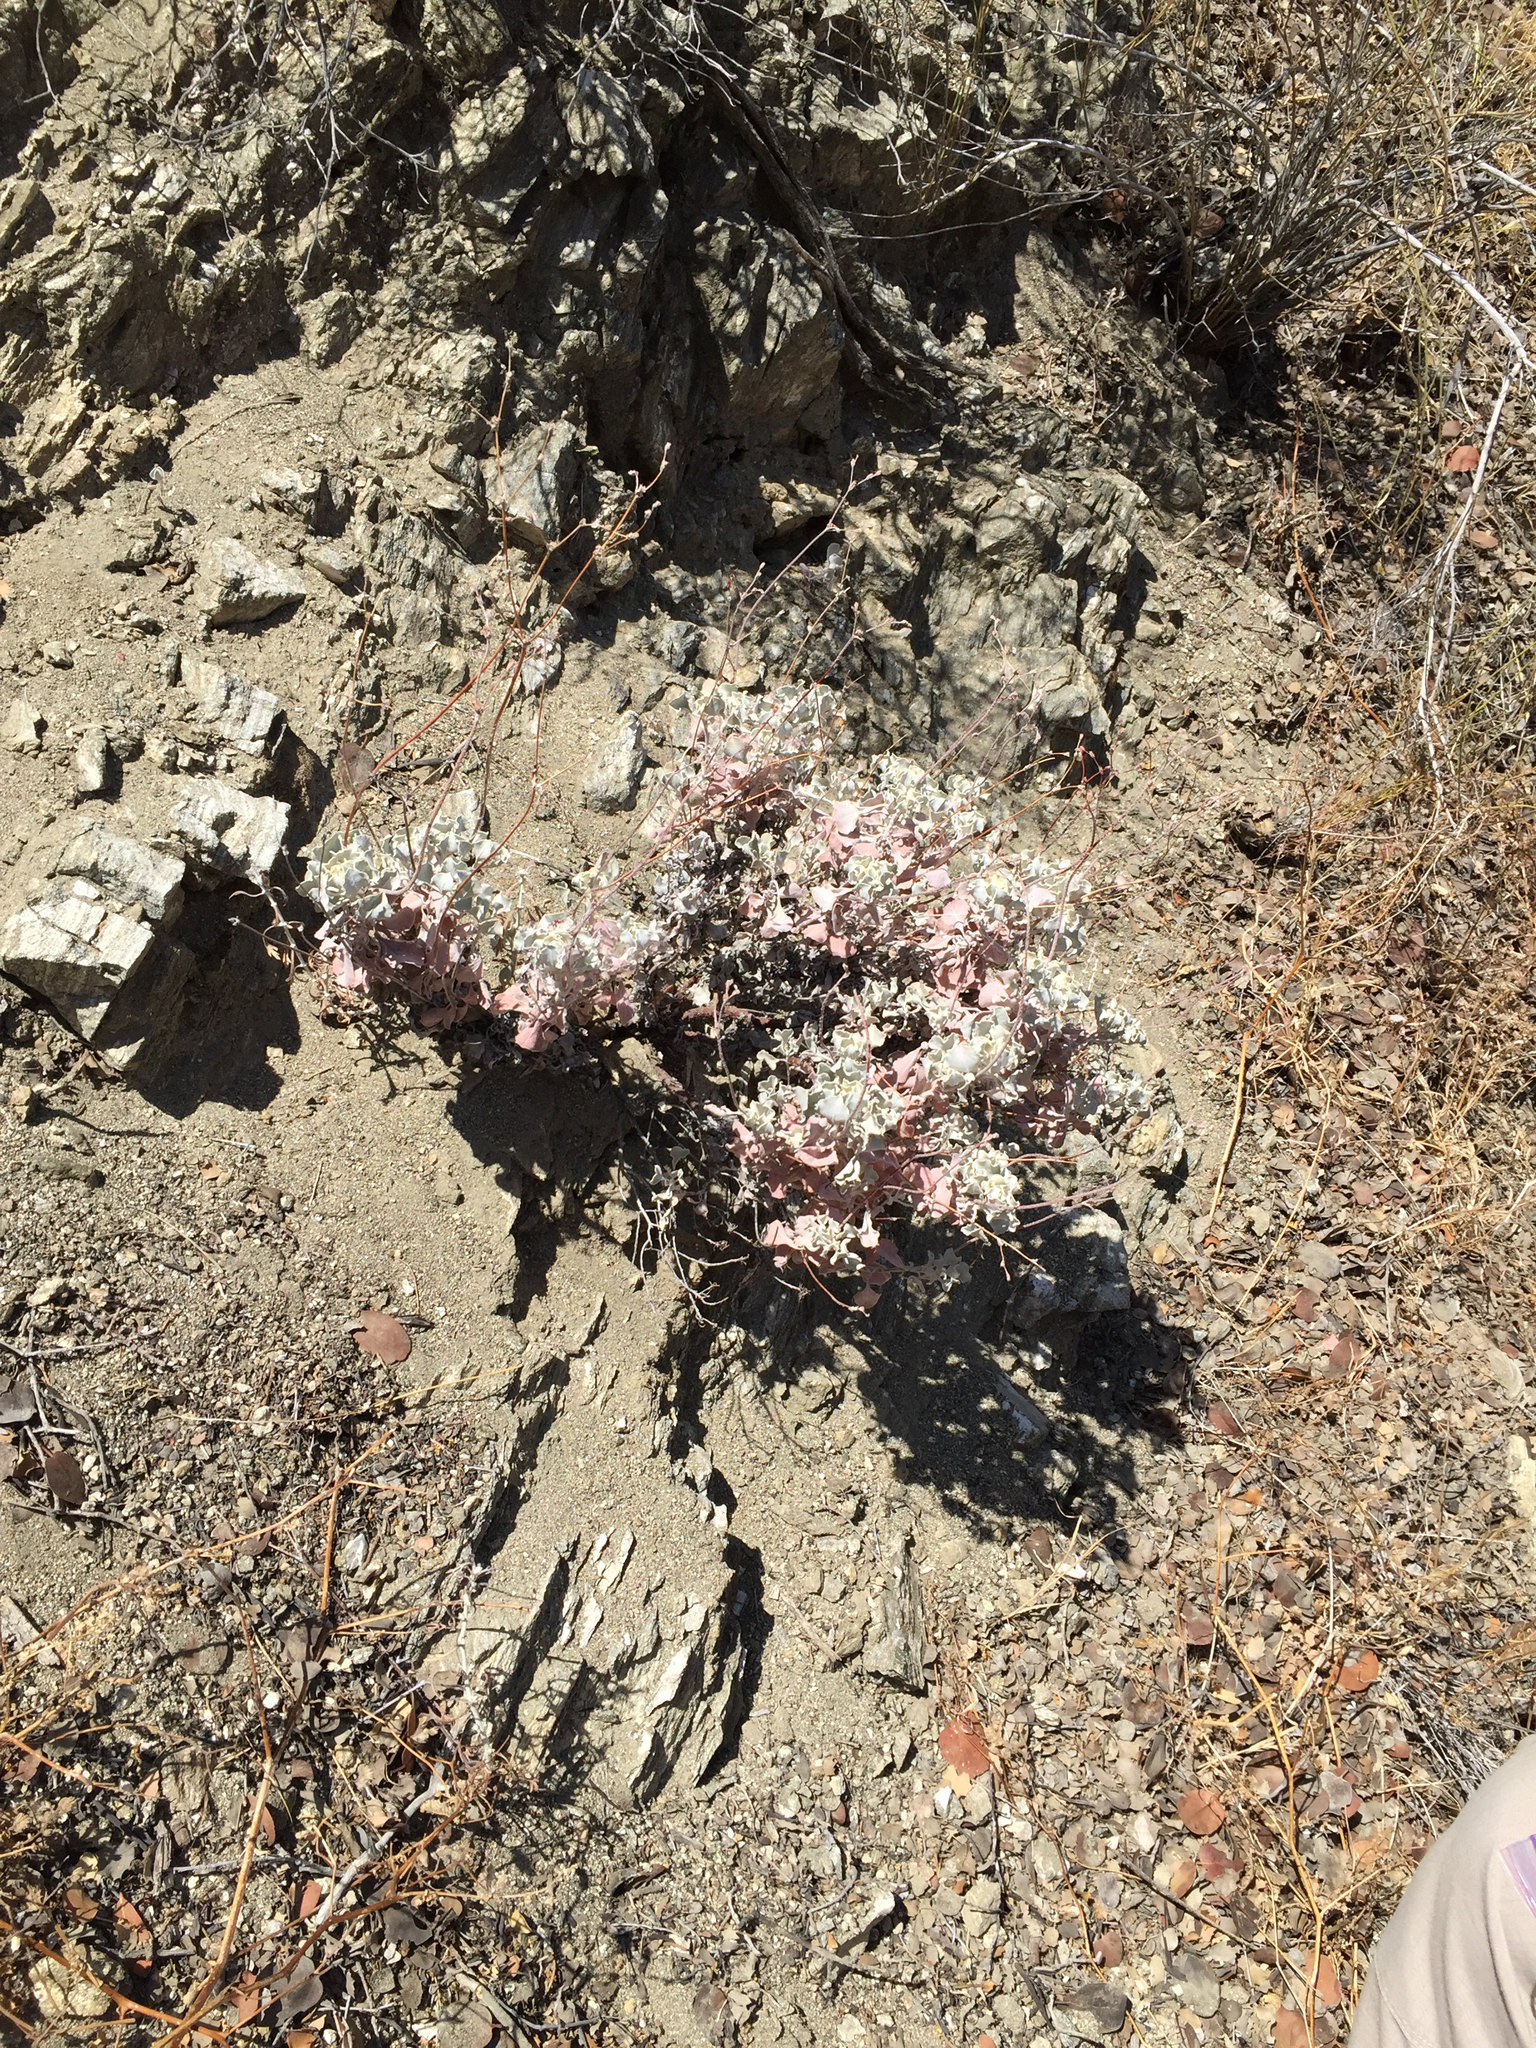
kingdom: Plantae
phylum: Tracheophyta
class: Magnoliopsida
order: Caryophyllales
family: Polygonaceae
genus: Eriogonum
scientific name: Eriogonum saxatile
